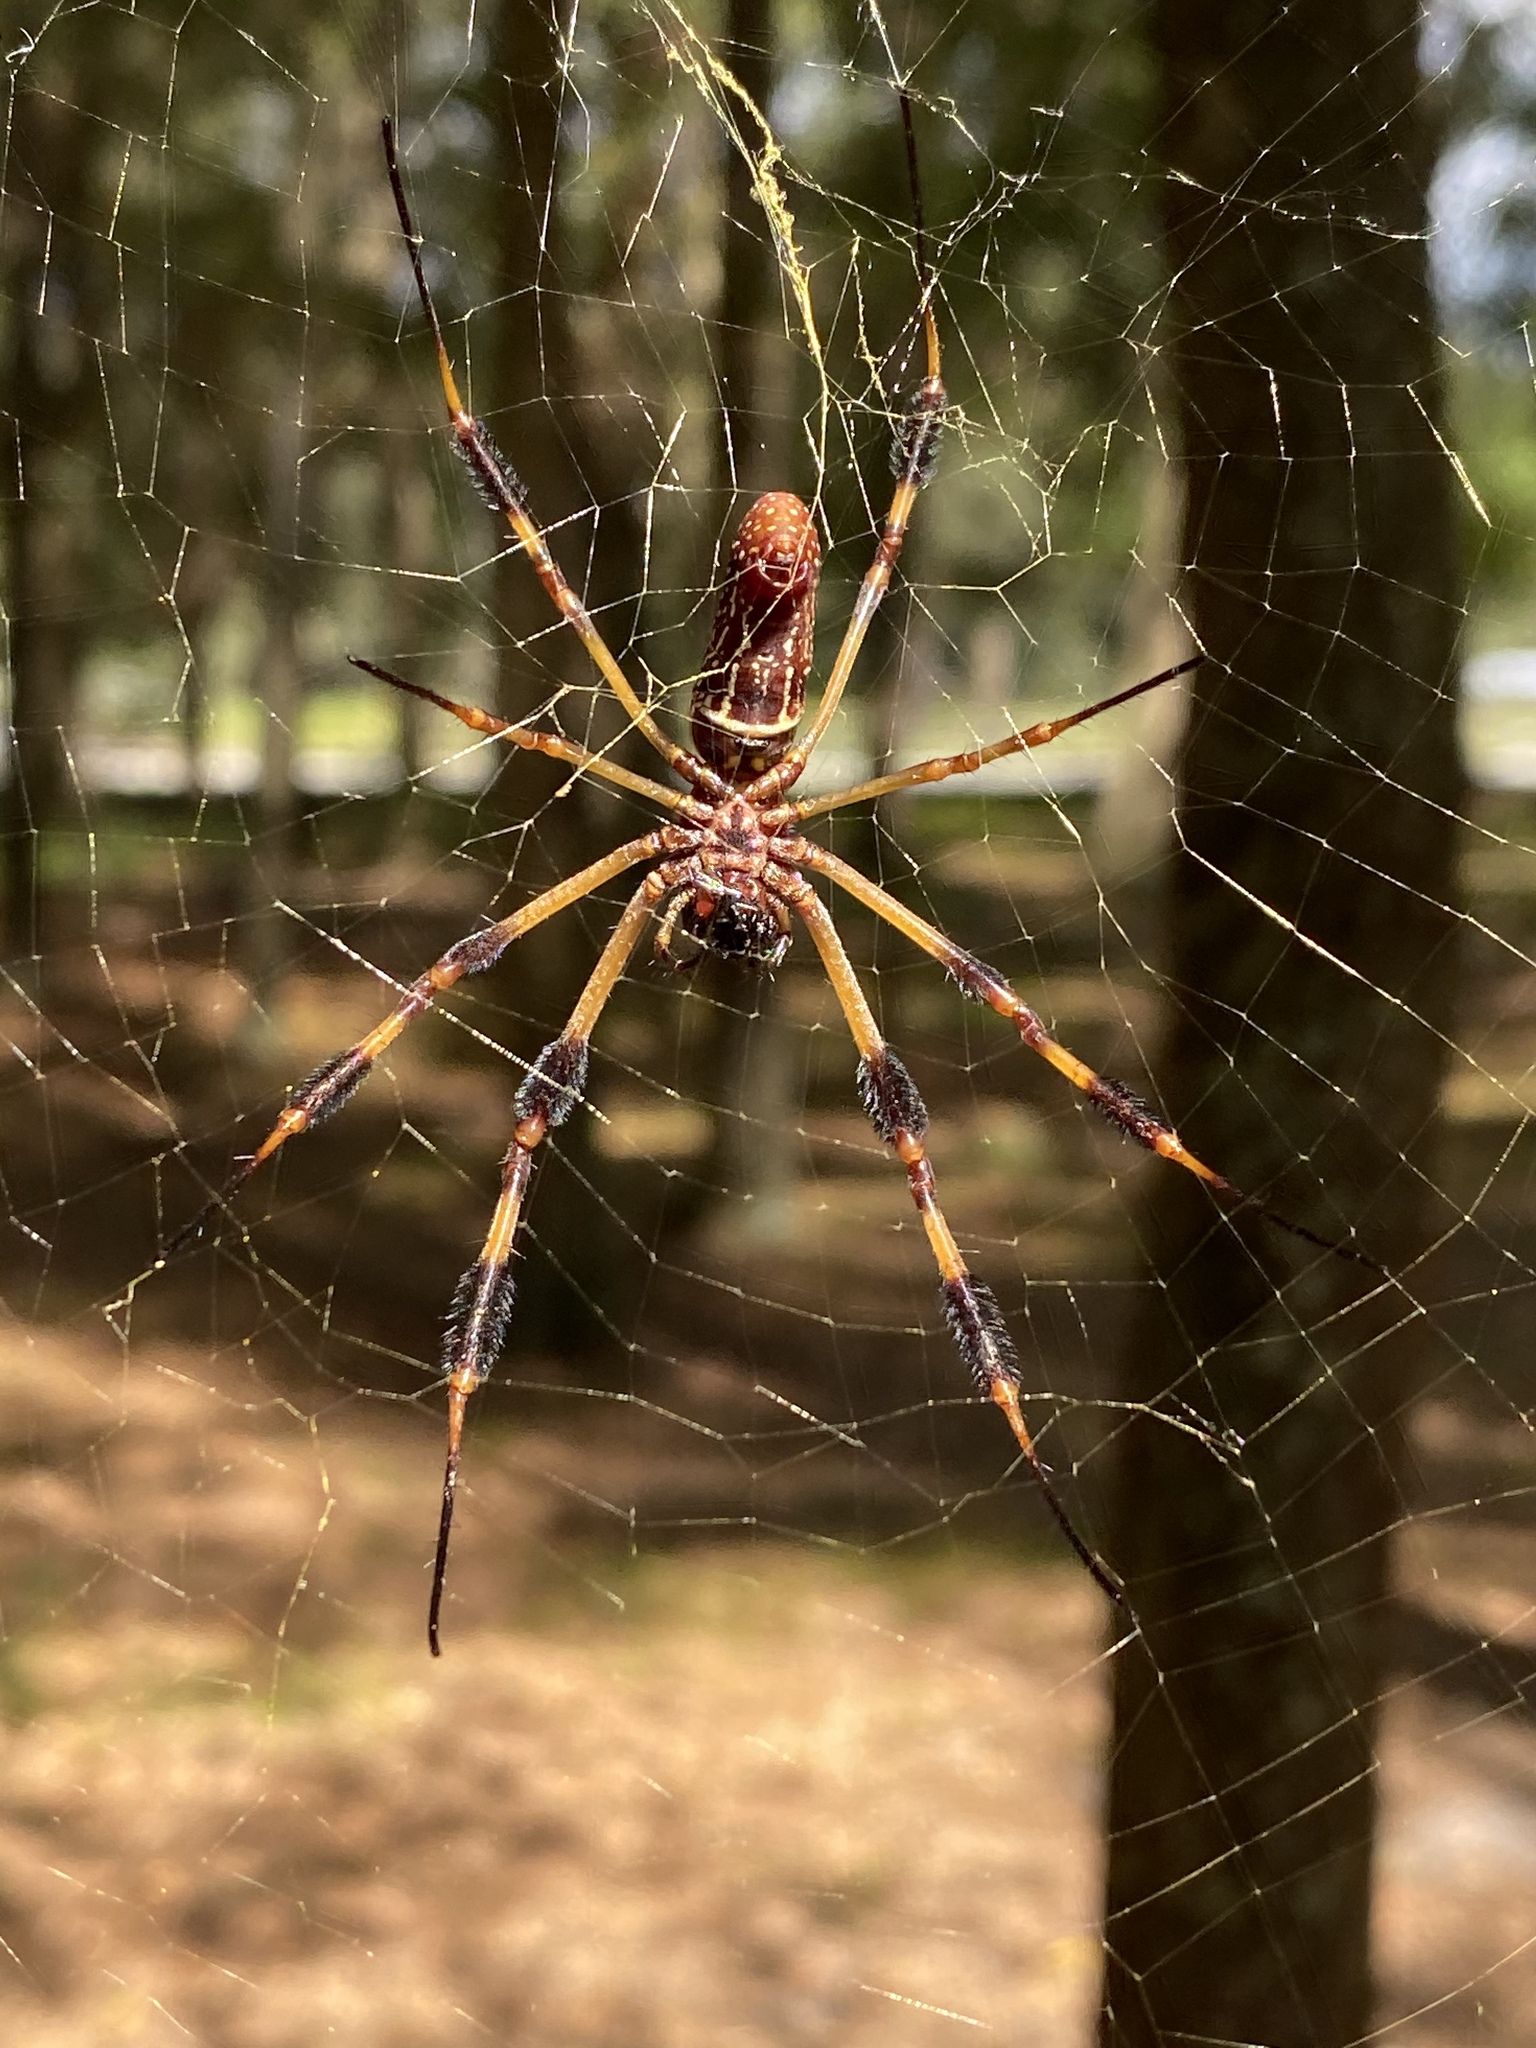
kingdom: Animalia
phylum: Arthropoda
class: Arachnida
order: Araneae
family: Araneidae
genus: Trichonephila
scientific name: Trichonephila clavipes
